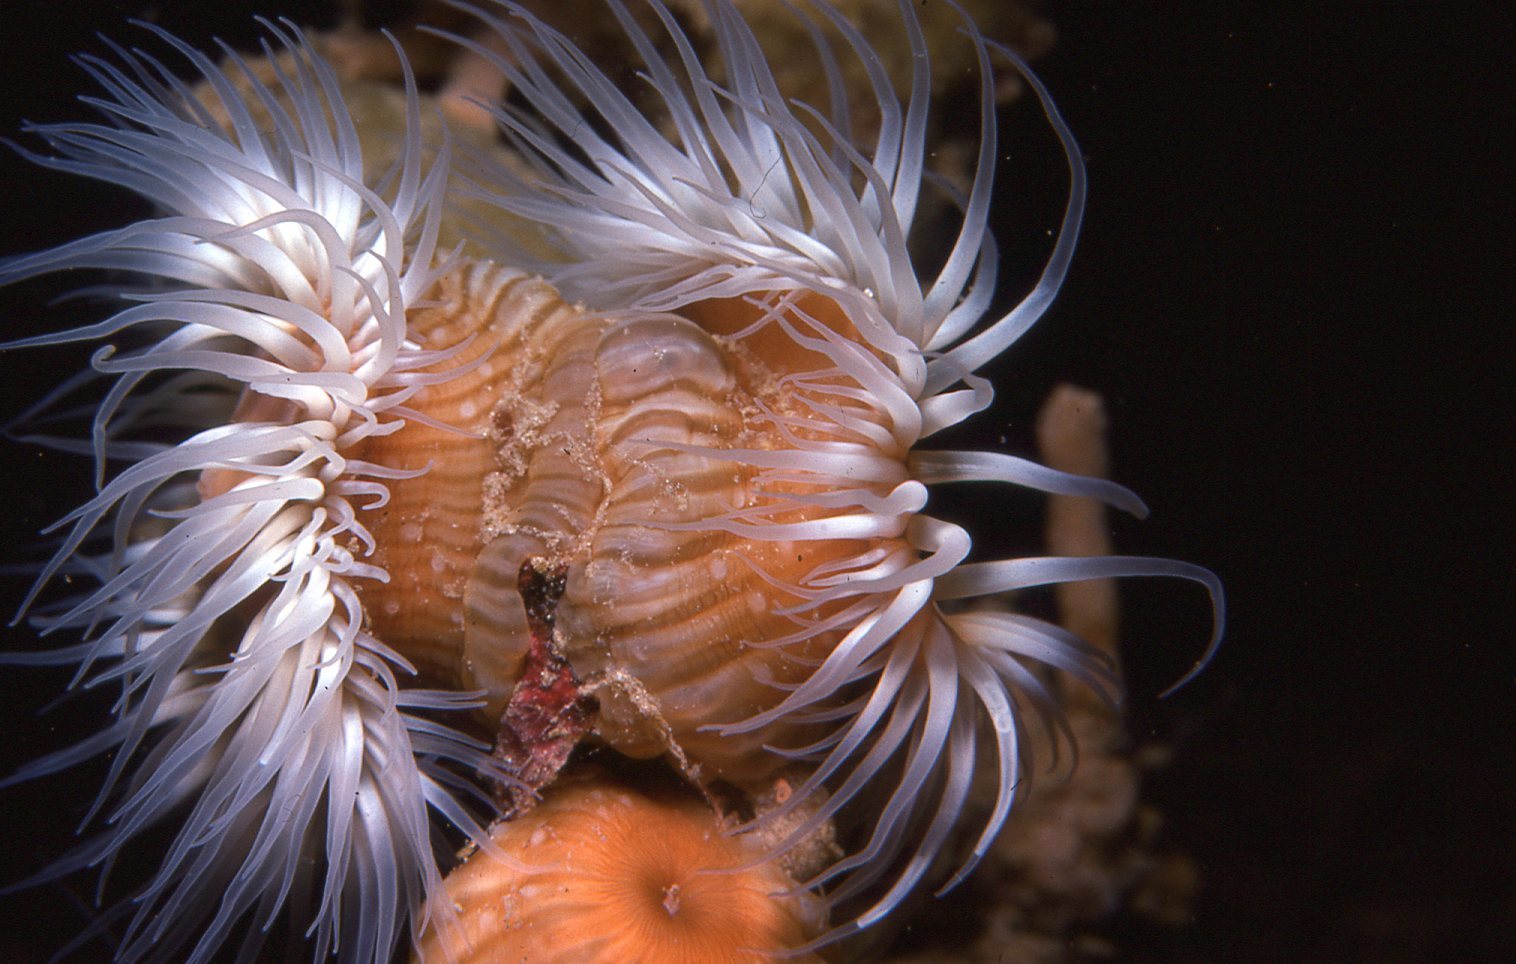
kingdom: Animalia
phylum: Cnidaria
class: Anthozoa
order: Actiniaria
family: Sagartiidae
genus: Anthothoe
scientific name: Anthothoe albocincta
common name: Orange striped anemone
